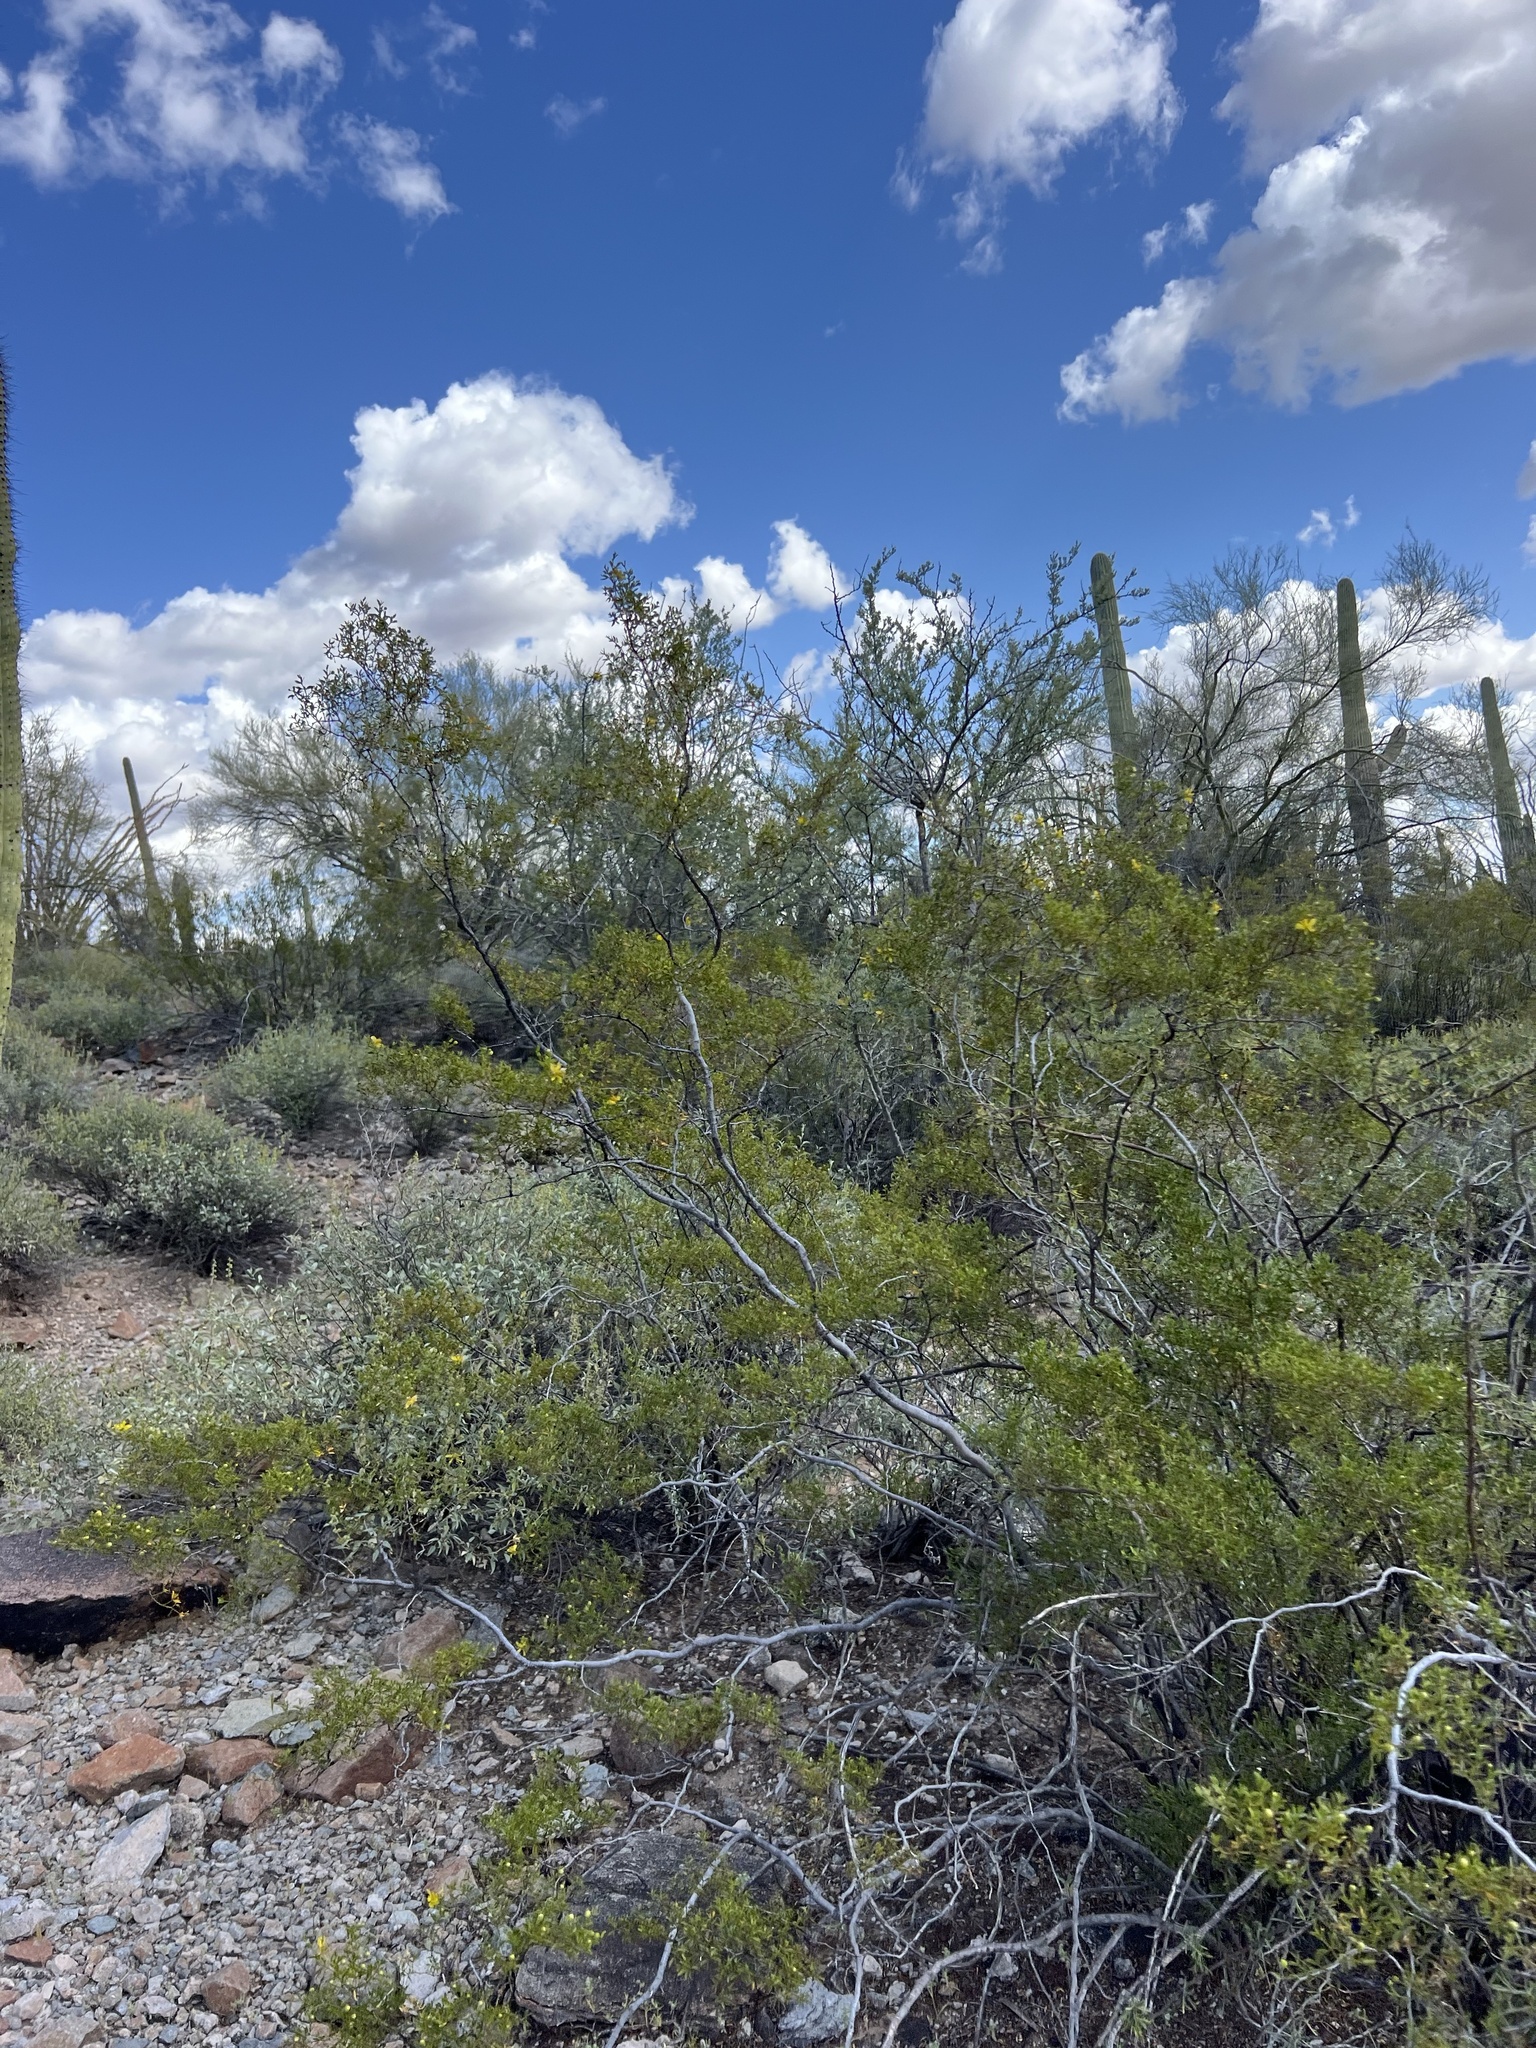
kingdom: Plantae
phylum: Tracheophyta
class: Magnoliopsida
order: Zygophyllales
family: Zygophyllaceae
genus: Larrea
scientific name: Larrea tridentata
